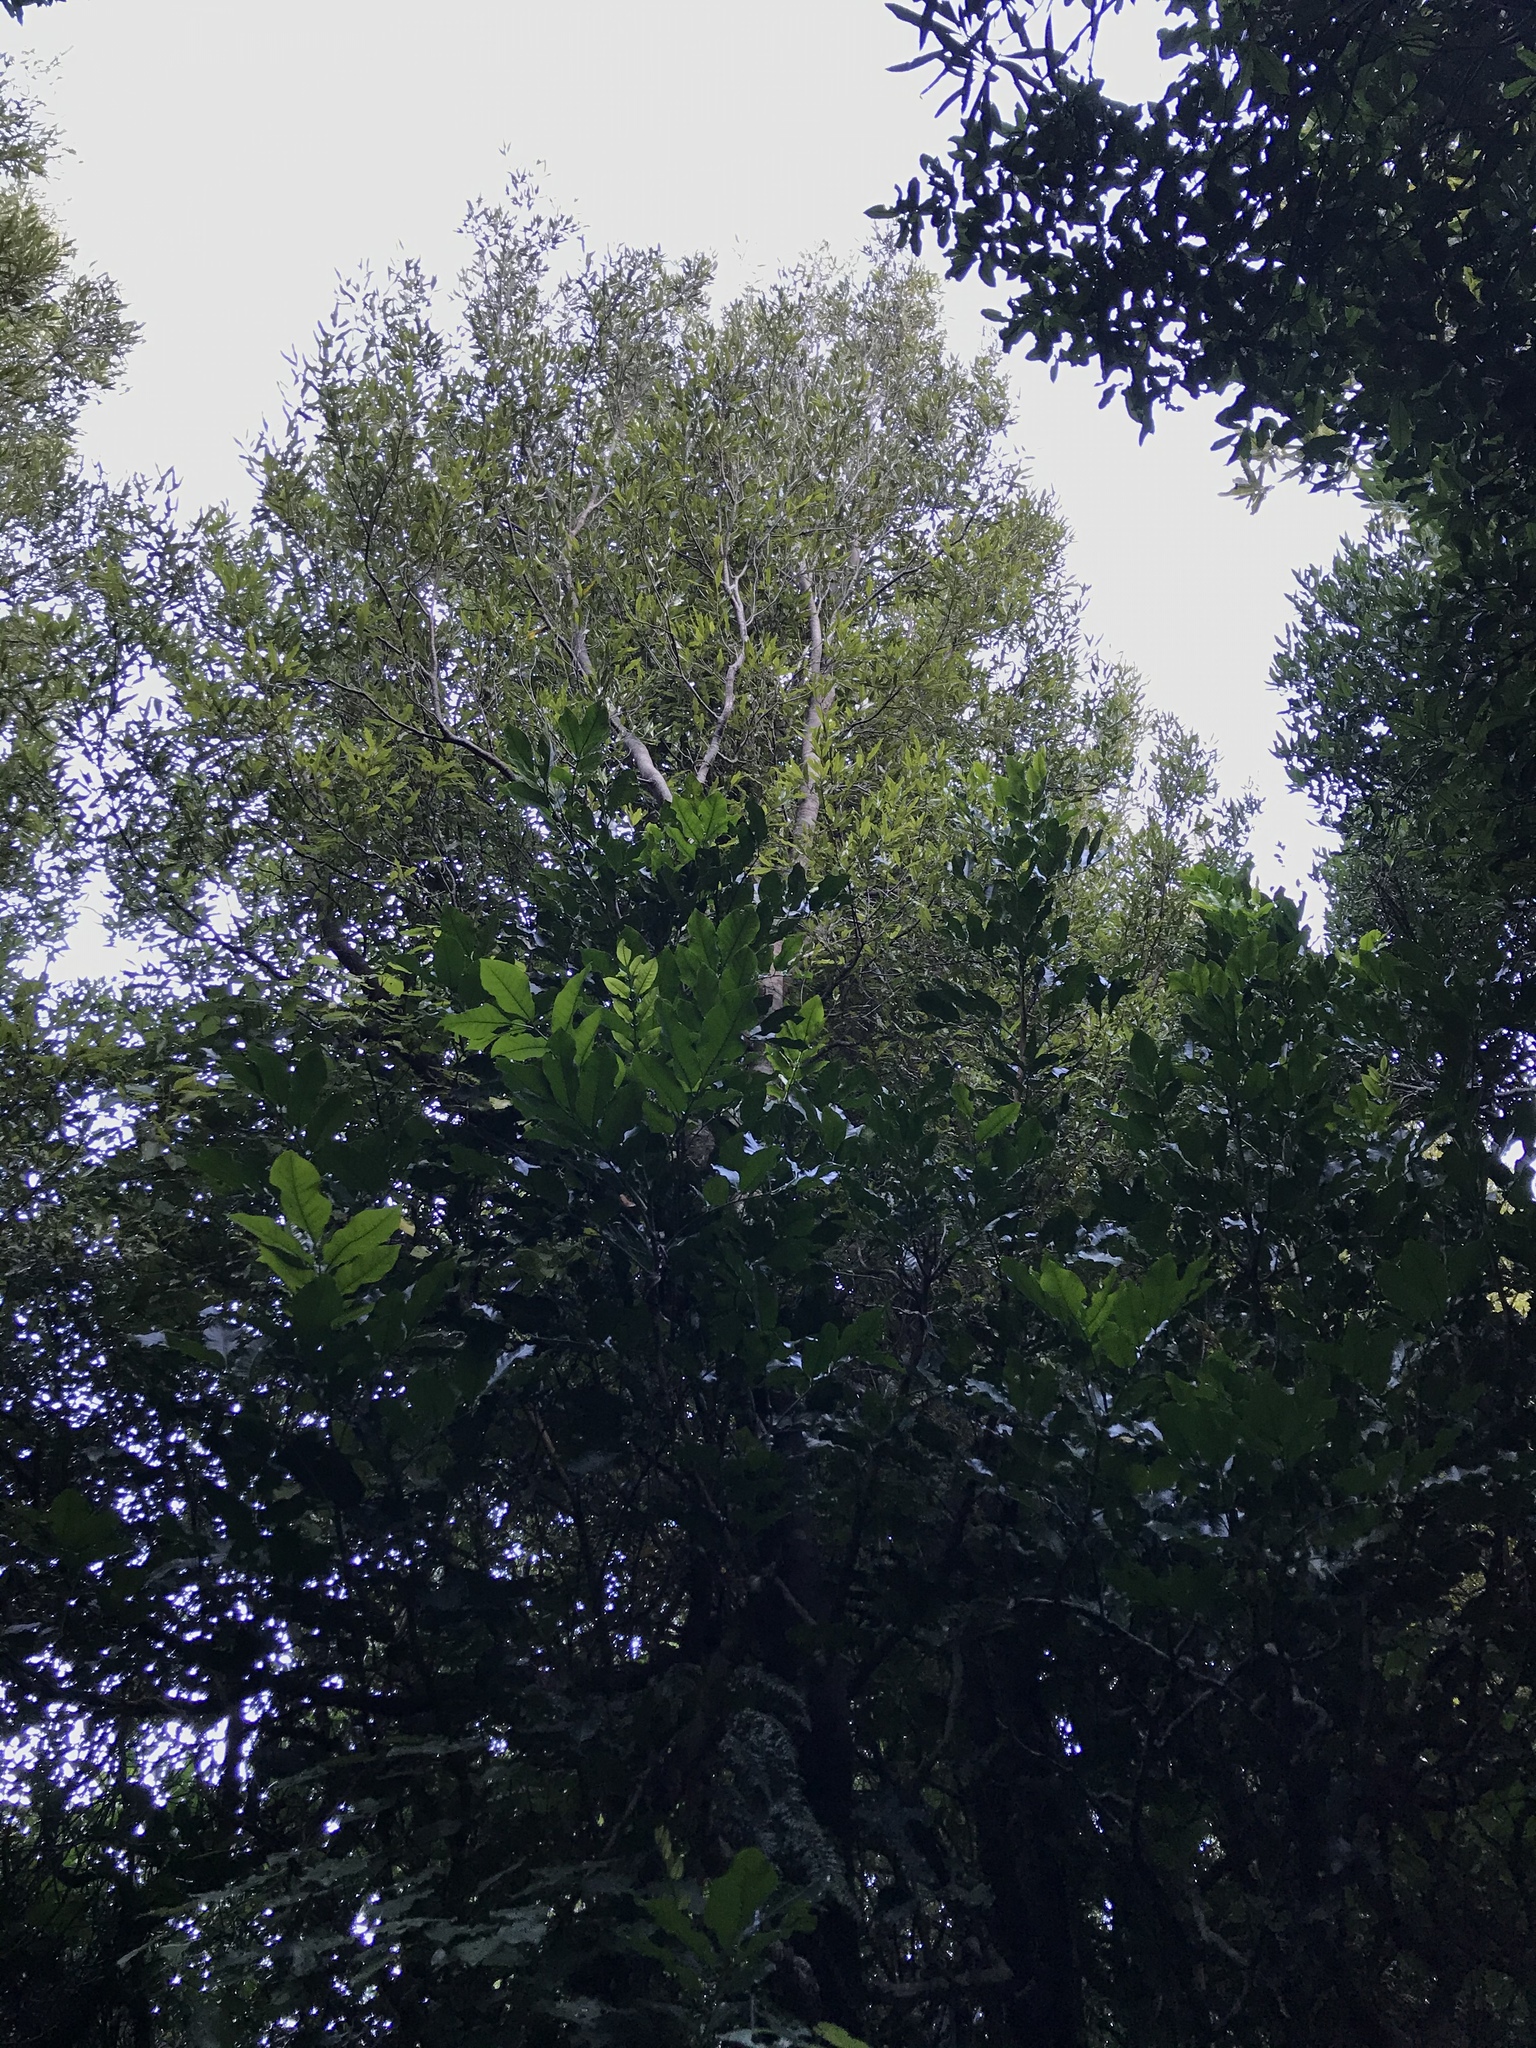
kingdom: Plantae
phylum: Tracheophyta
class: Magnoliopsida
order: Sapindales
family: Meliaceae
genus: Didymocheton
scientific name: Didymocheton spectabilis
